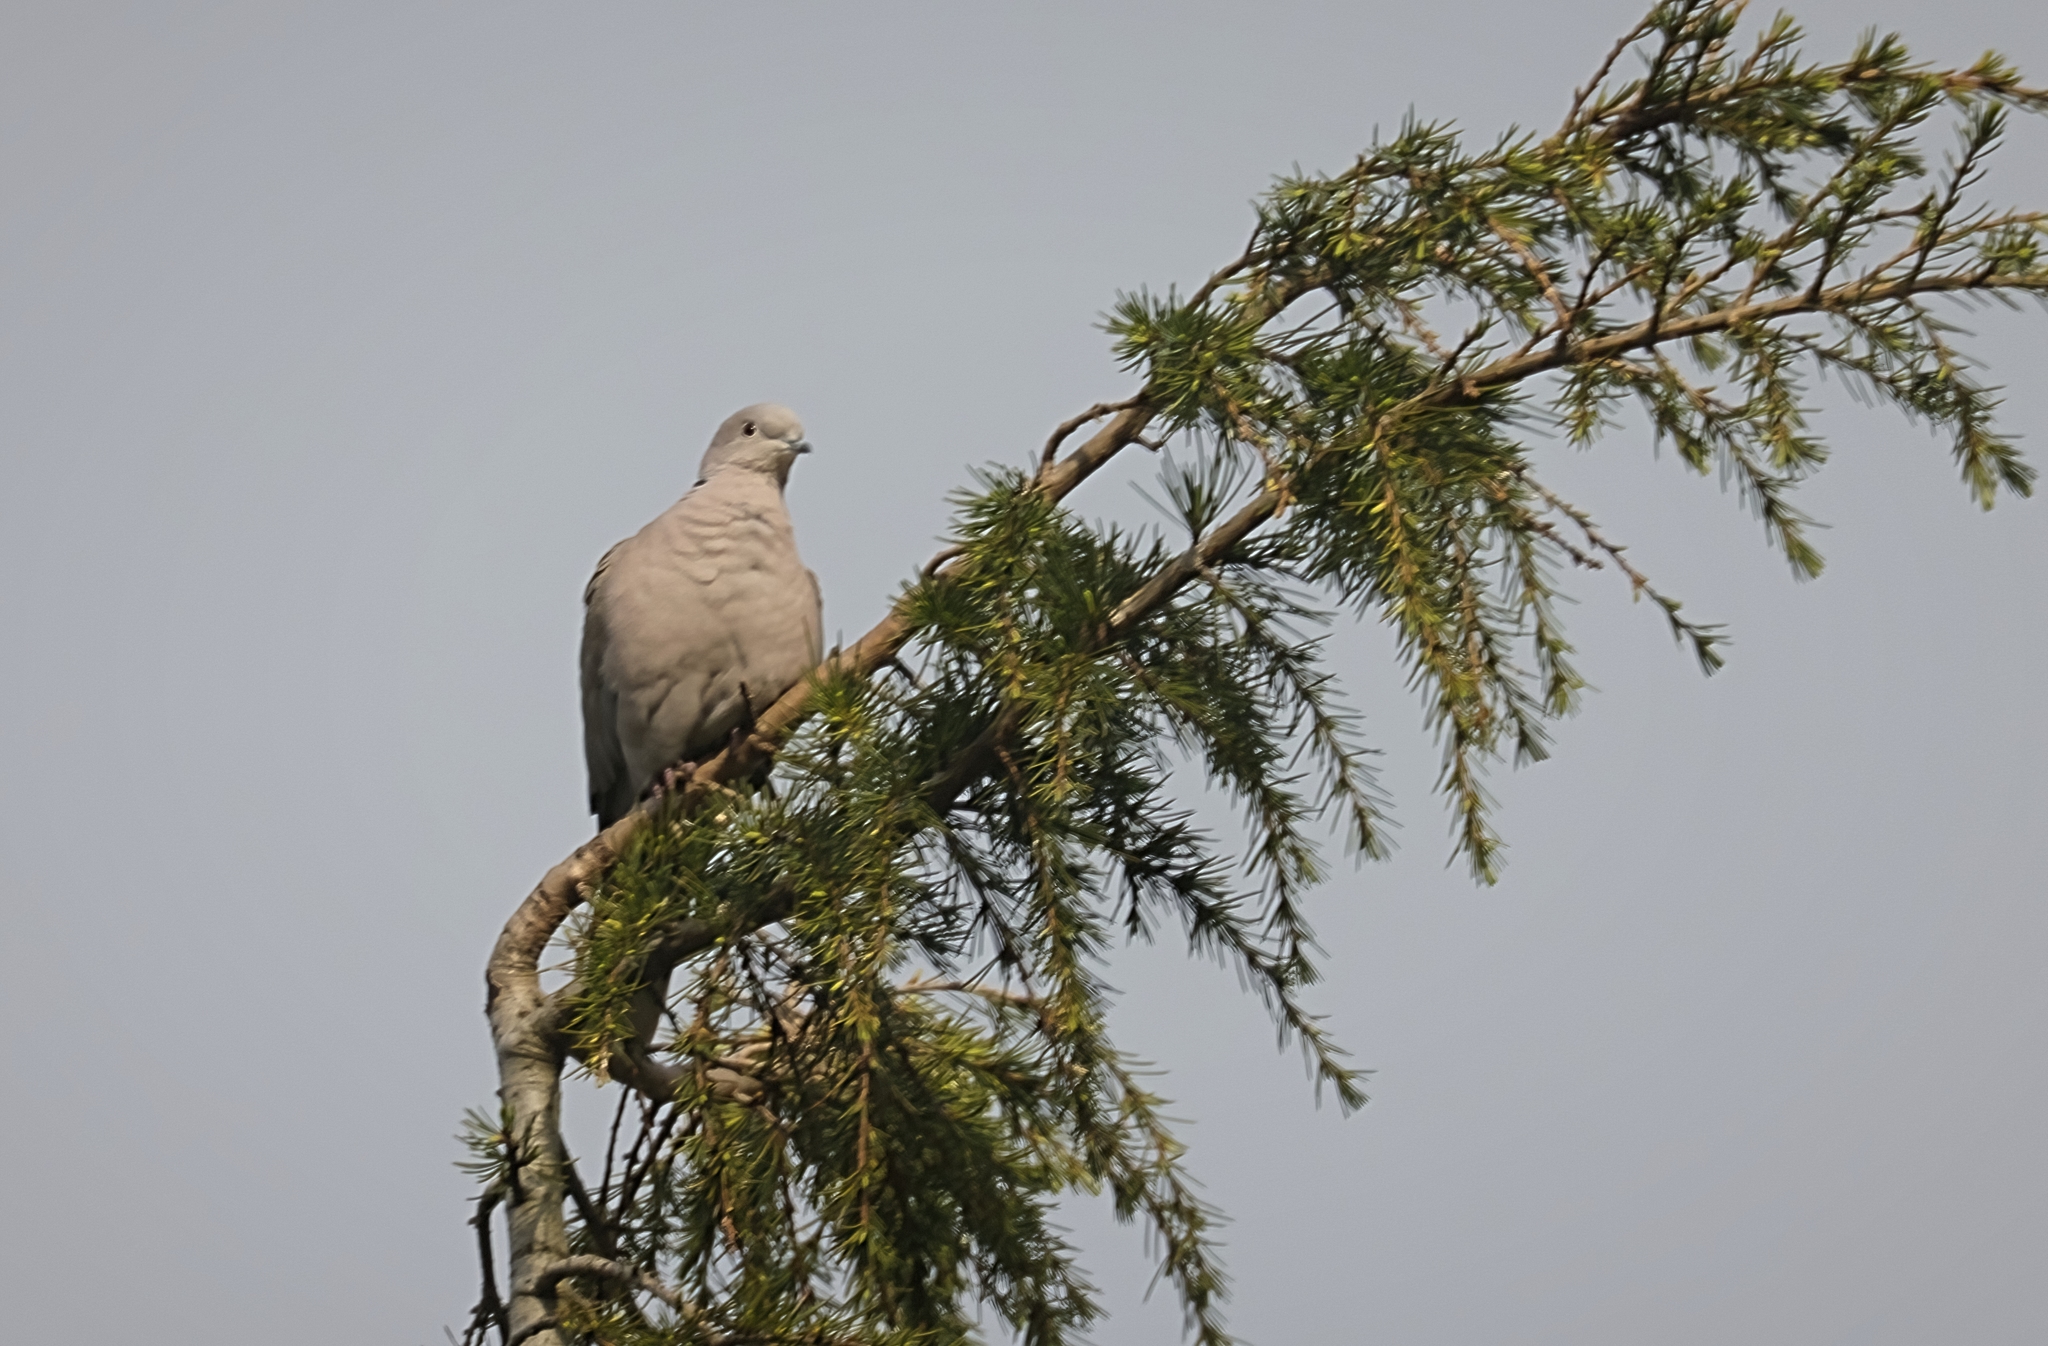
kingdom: Animalia
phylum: Chordata
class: Aves
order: Columbiformes
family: Columbidae
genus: Streptopelia
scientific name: Streptopelia decaocto
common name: Eurasian collared dove
